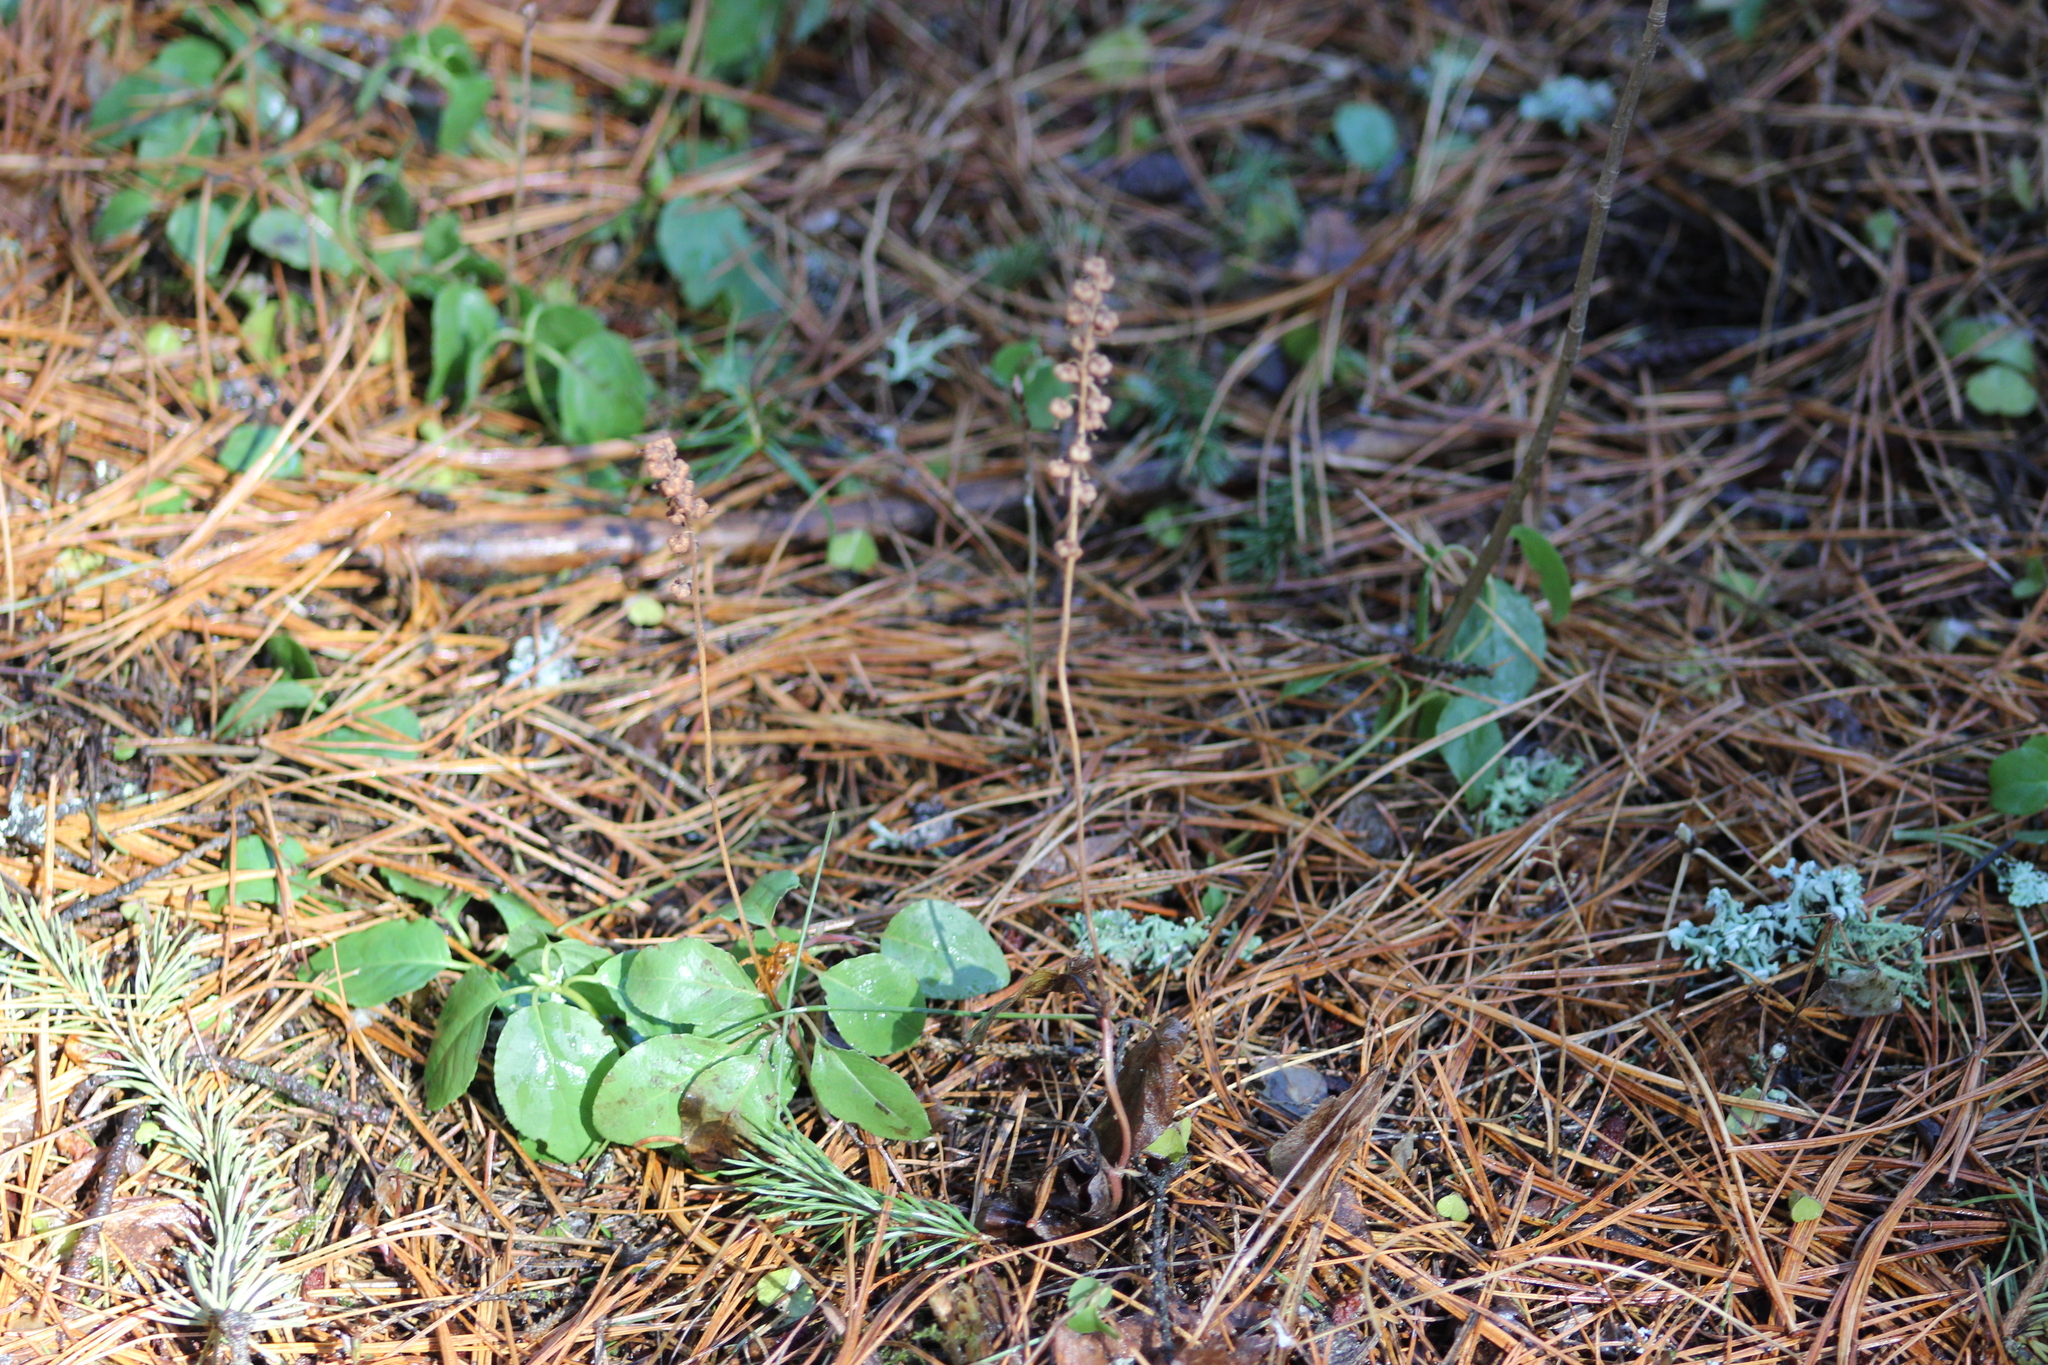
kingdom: Plantae
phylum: Tracheophyta
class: Magnoliopsida
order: Ericales
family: Ericaceae
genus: Orthilia
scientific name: Orthilia secunda
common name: One-sided orthilia
